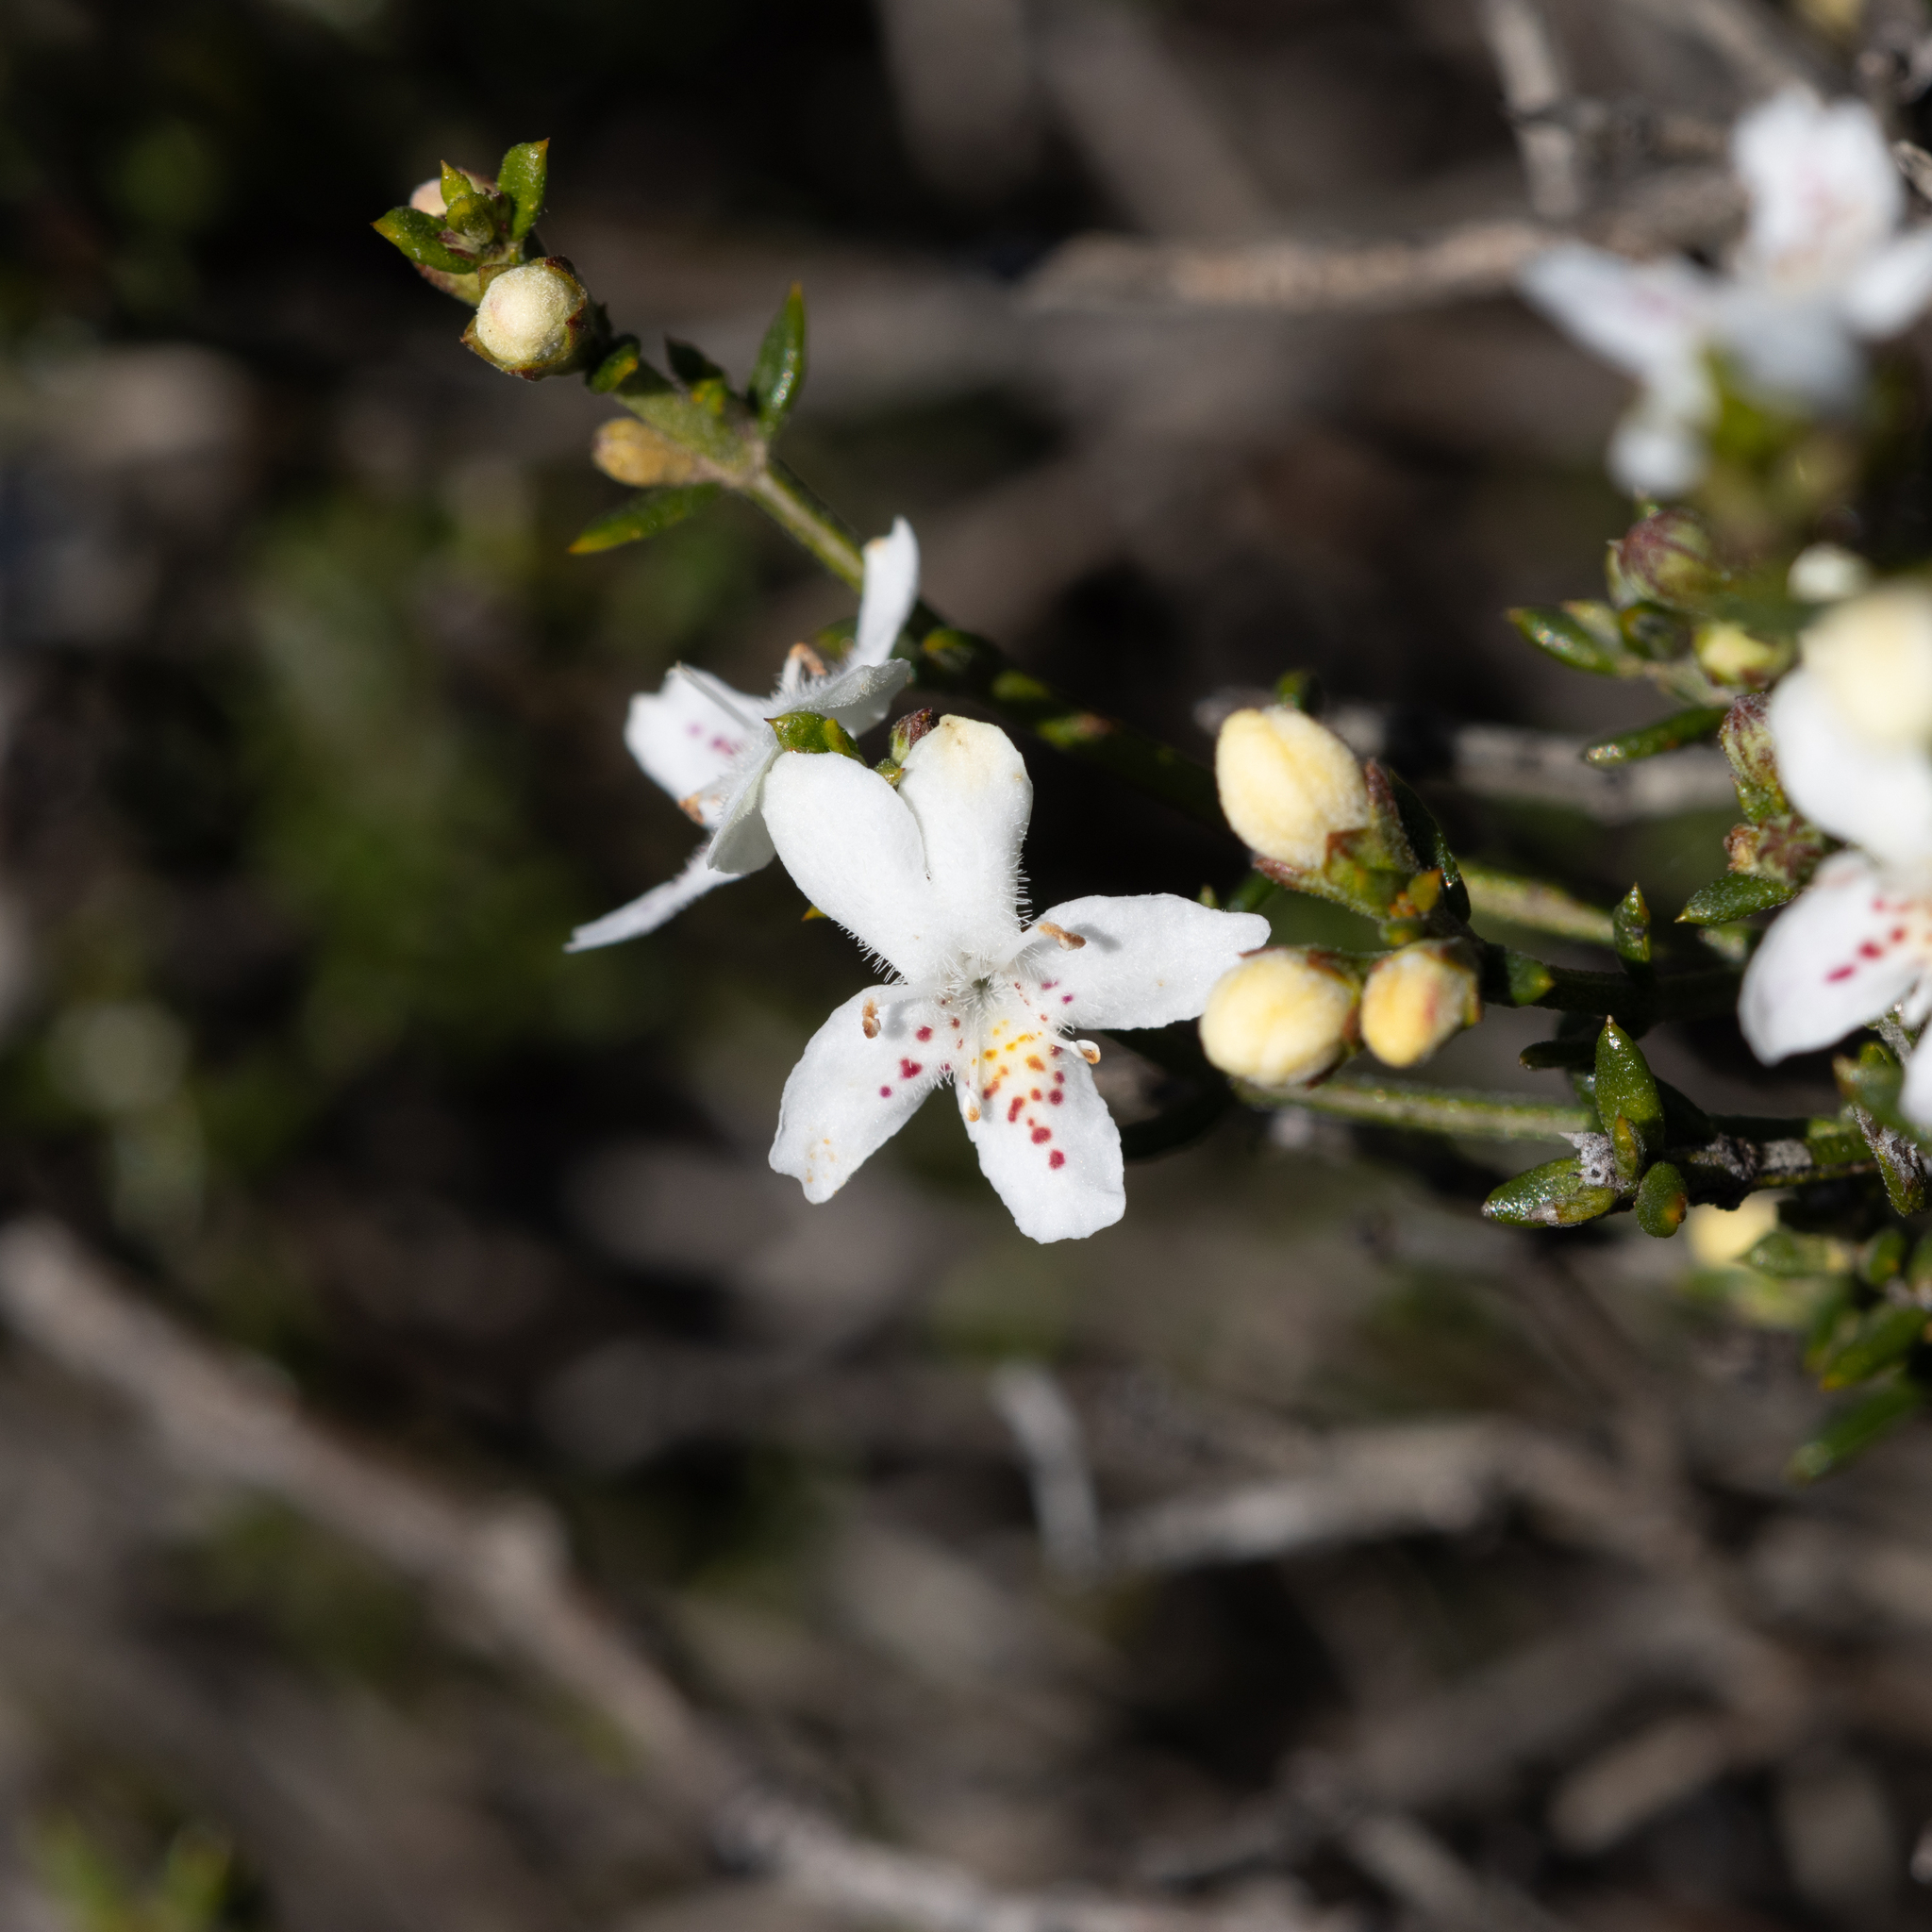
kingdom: Plantae
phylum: Tracheophyta
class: Magnoliopsida
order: Lamiales
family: Lamiaceae
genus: Westringia
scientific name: Westringia rigida
